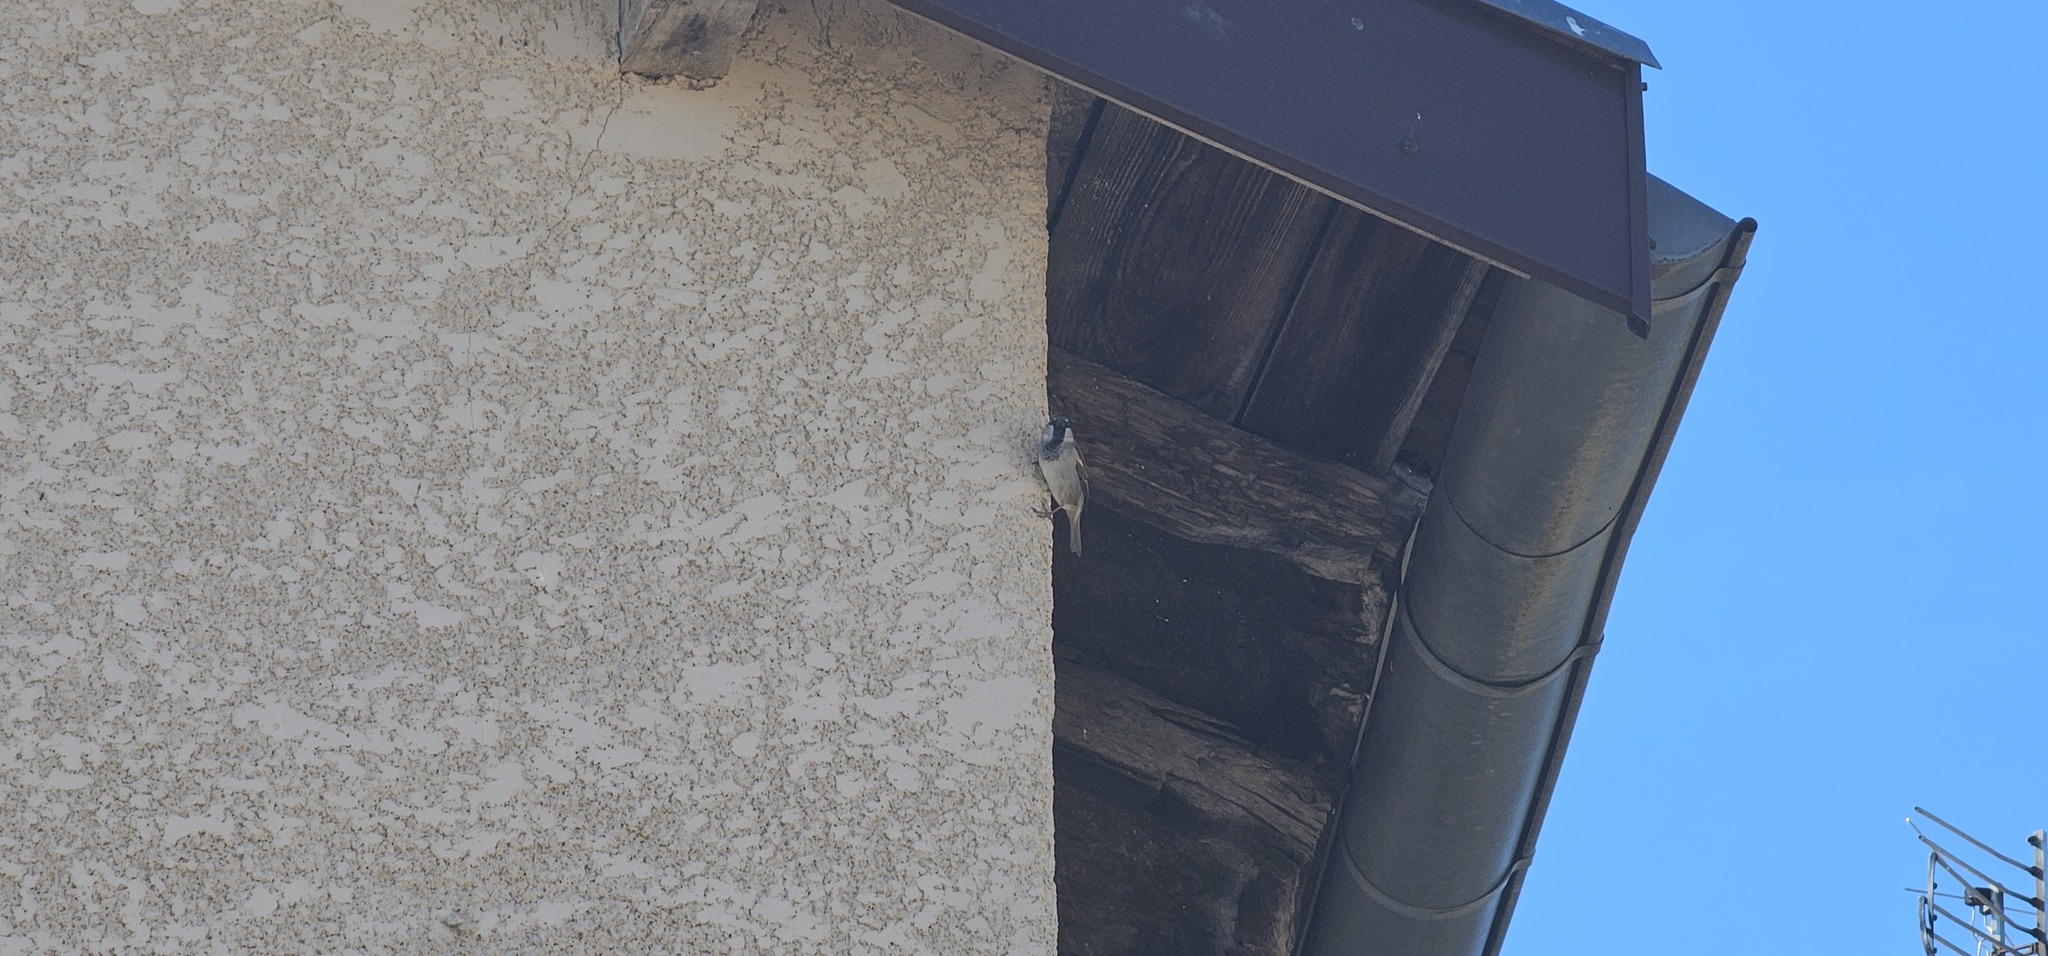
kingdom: Animalia
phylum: Chordata
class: Aves
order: Passeriformes
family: Passeridae
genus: Passer
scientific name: Passer domesticus
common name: House sparrow
